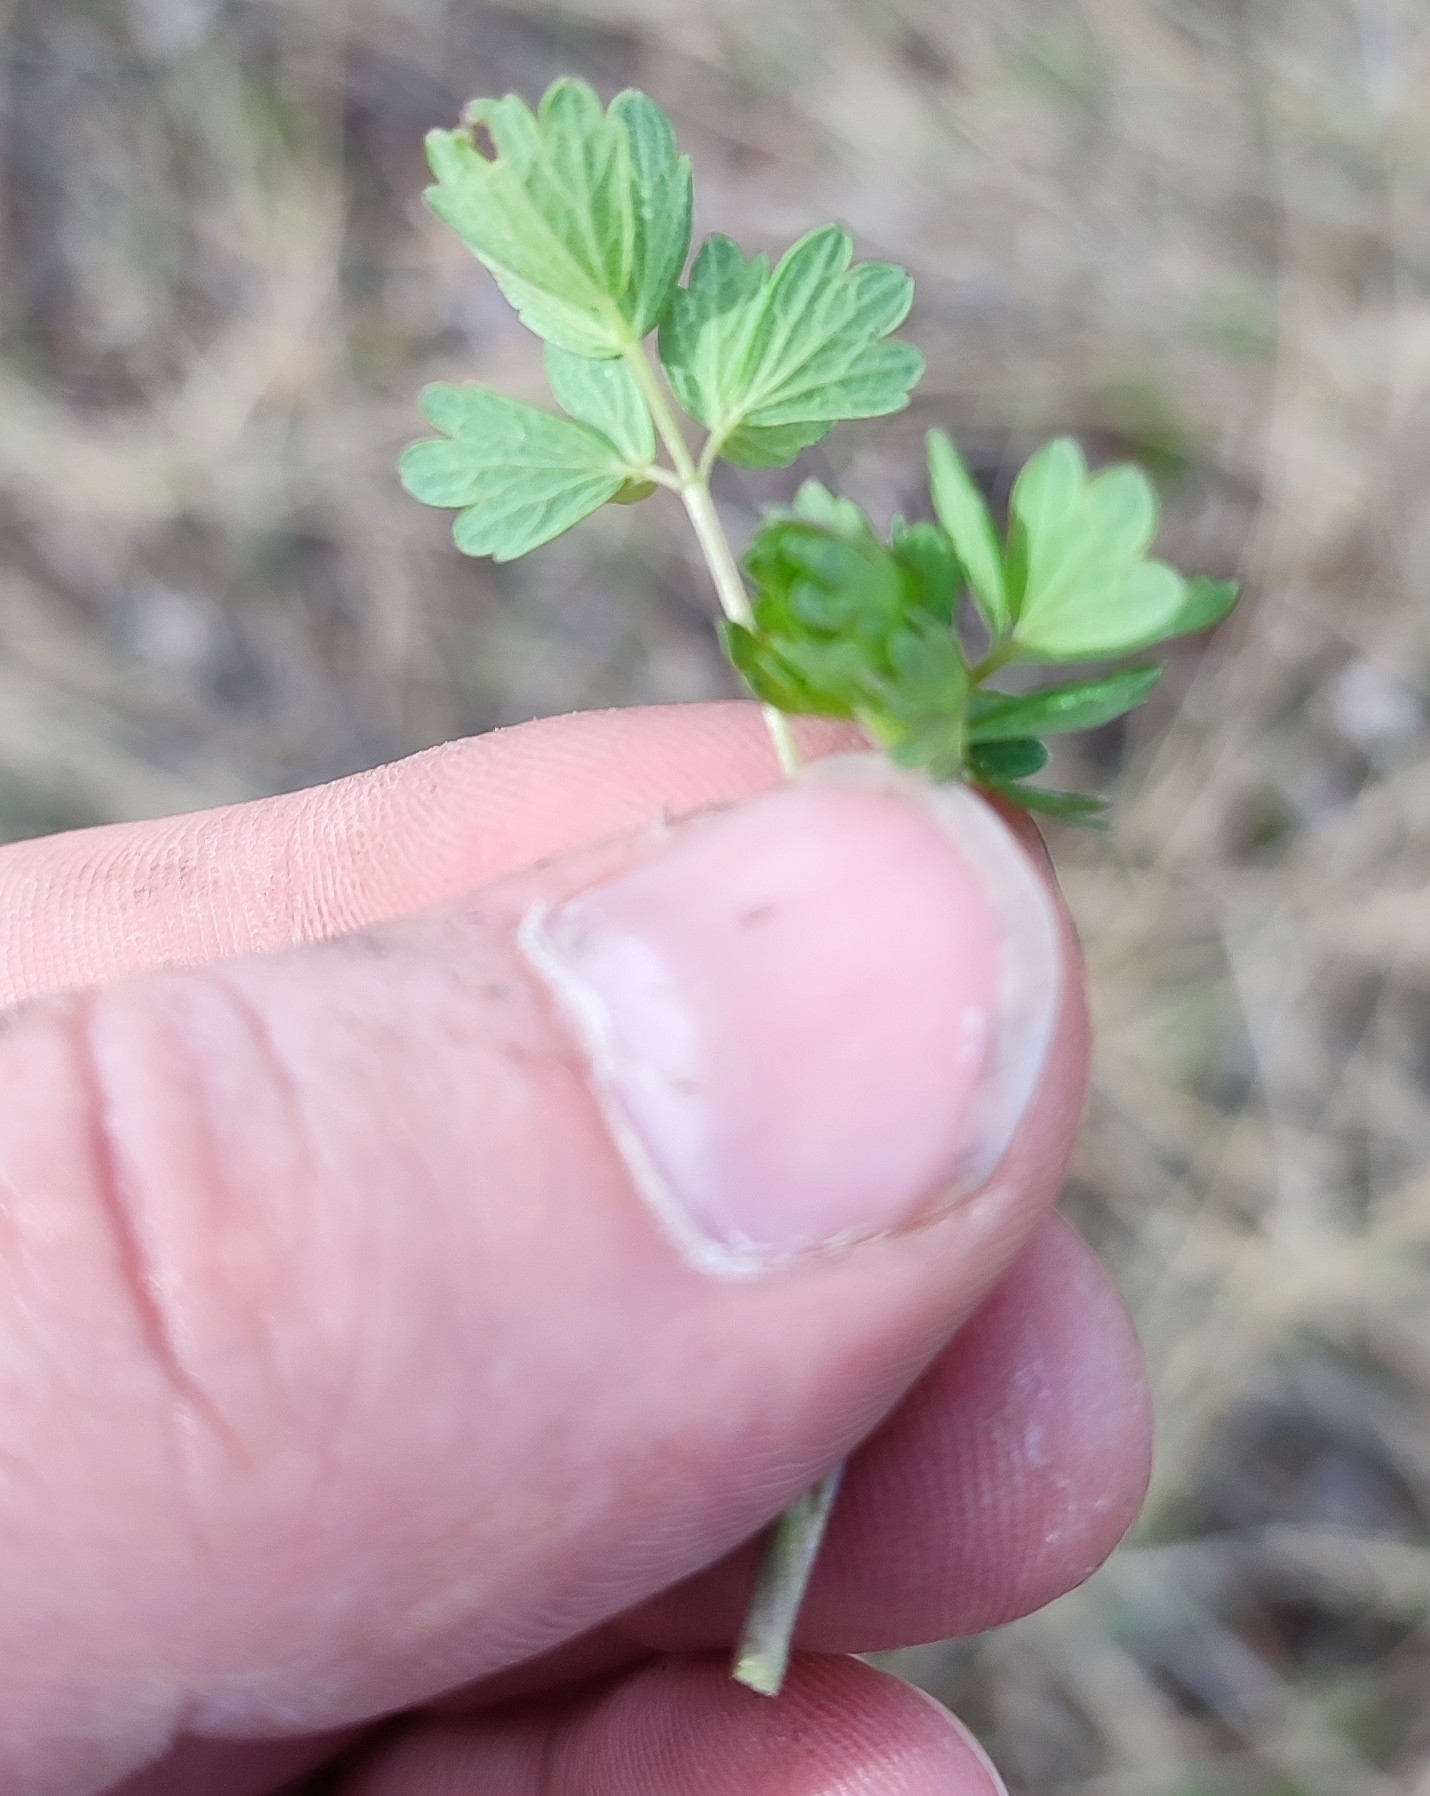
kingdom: Plantae
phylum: Tracheophyta
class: Magnoliopsida
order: Ranunculales
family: Ranunculaceae
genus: Thalictrum
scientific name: Thalictrum minus
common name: Lesser meadow-rue
